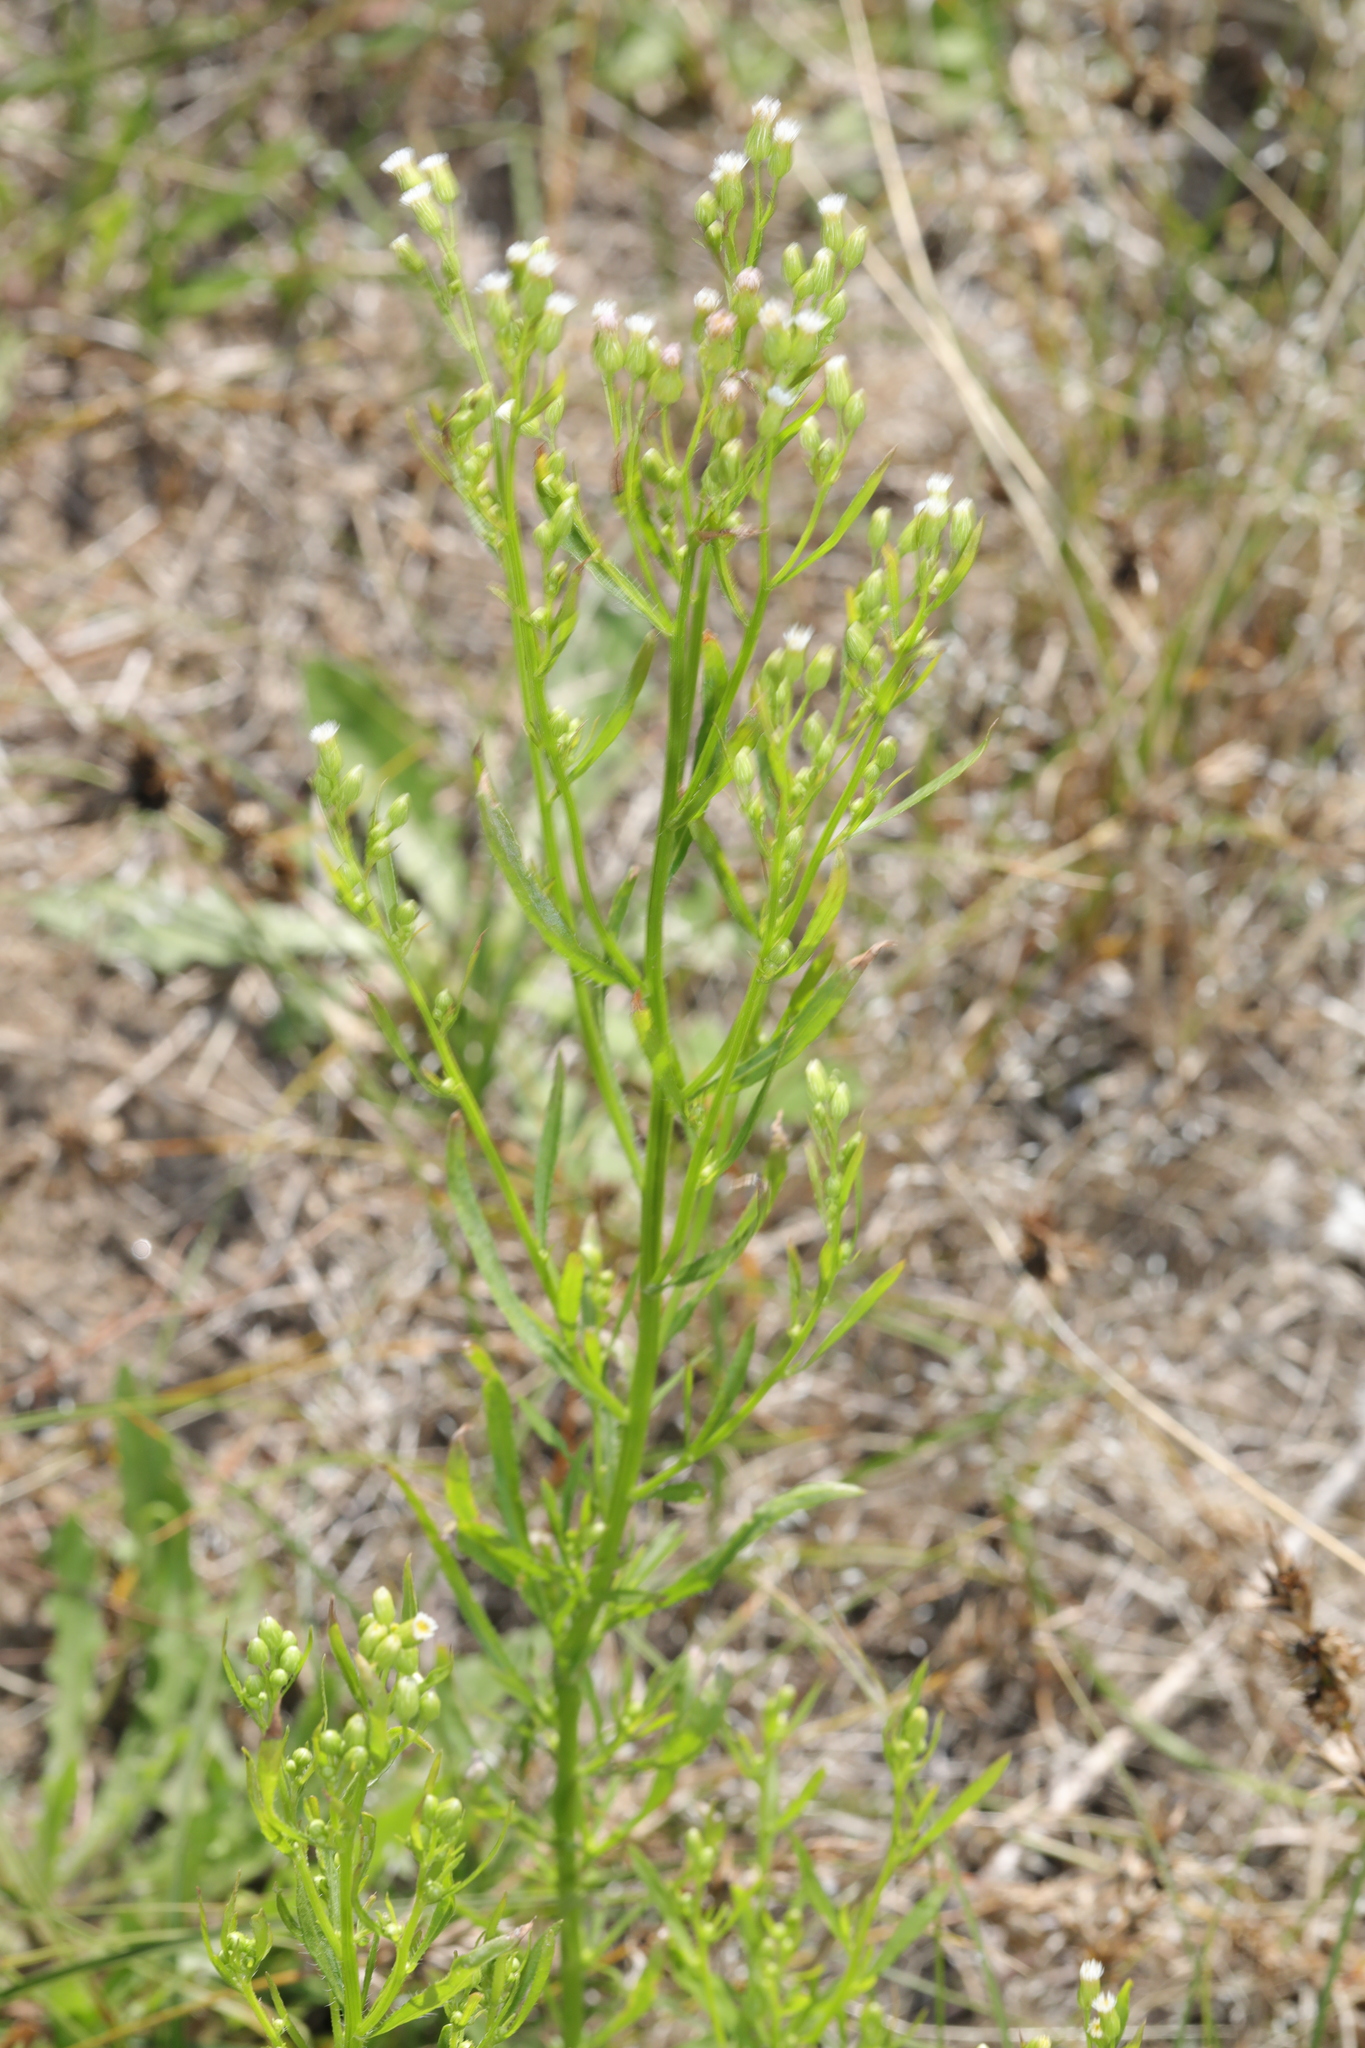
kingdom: Plantae
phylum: Tracheophyta
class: Magnoliopsida
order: Asterales
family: Asteraceae
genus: Erigeron
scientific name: Erigeron canadensis
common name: Canadian fleabane
